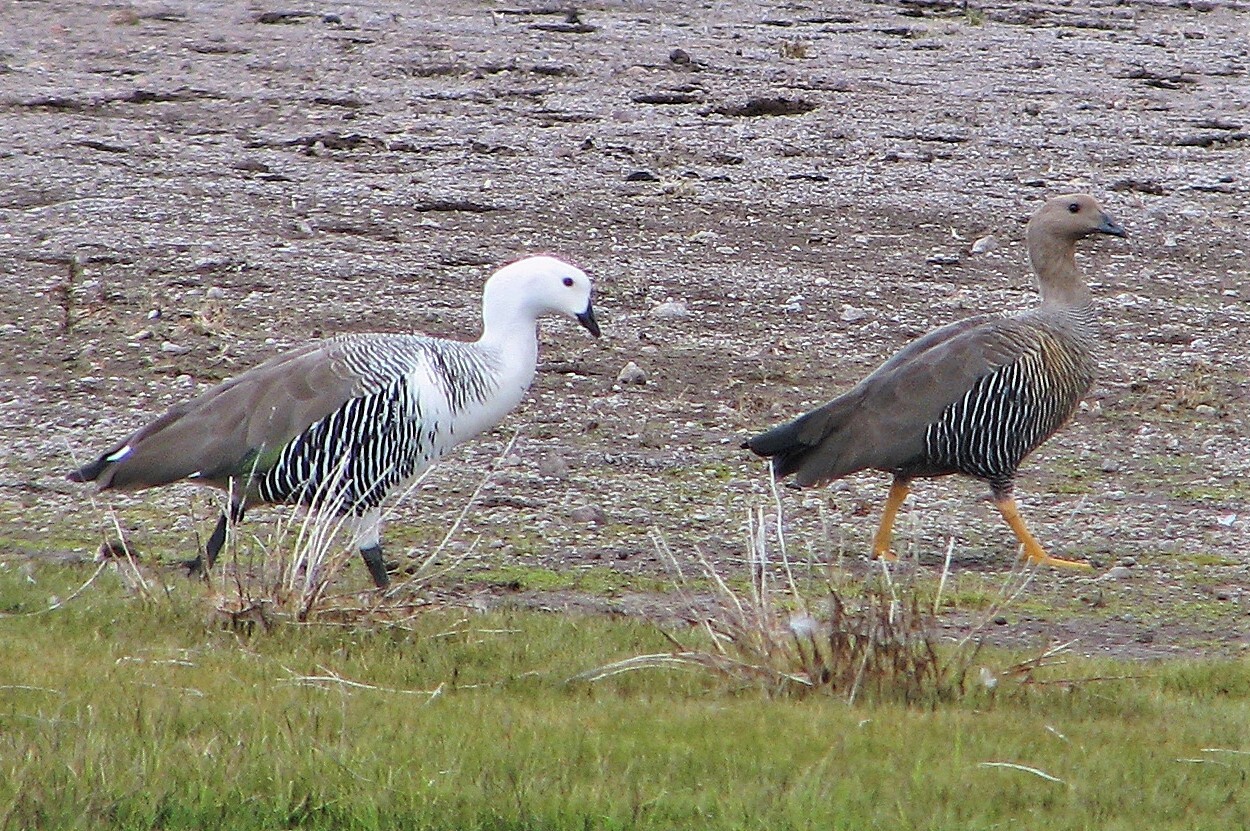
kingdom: Animalia
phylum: Chordata
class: Aves
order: Anseriformes
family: Anatidae
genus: Chloephaga
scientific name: Chloephaga picta
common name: Upland goose
